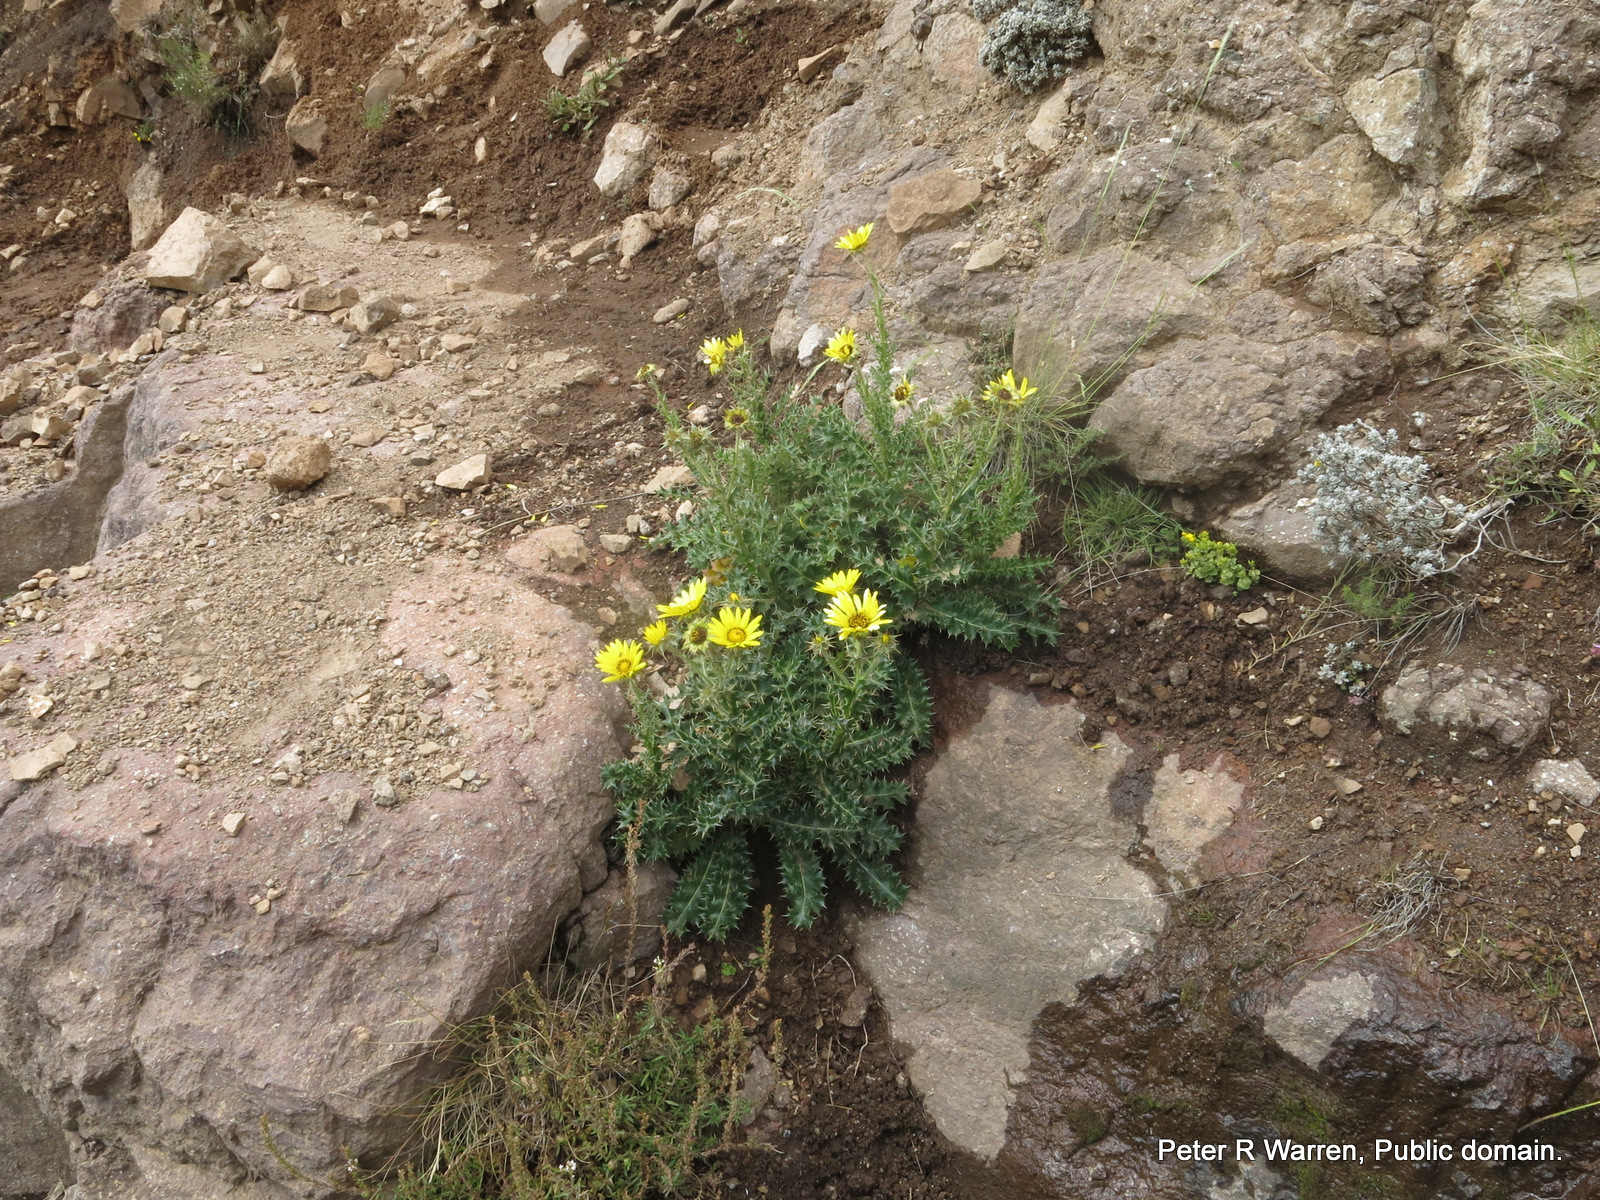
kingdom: Plantae
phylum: Tracheophyta
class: Magnoliopsida
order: Asterales
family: Asteraceae
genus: Berkheya
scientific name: Berkheya multijuga
